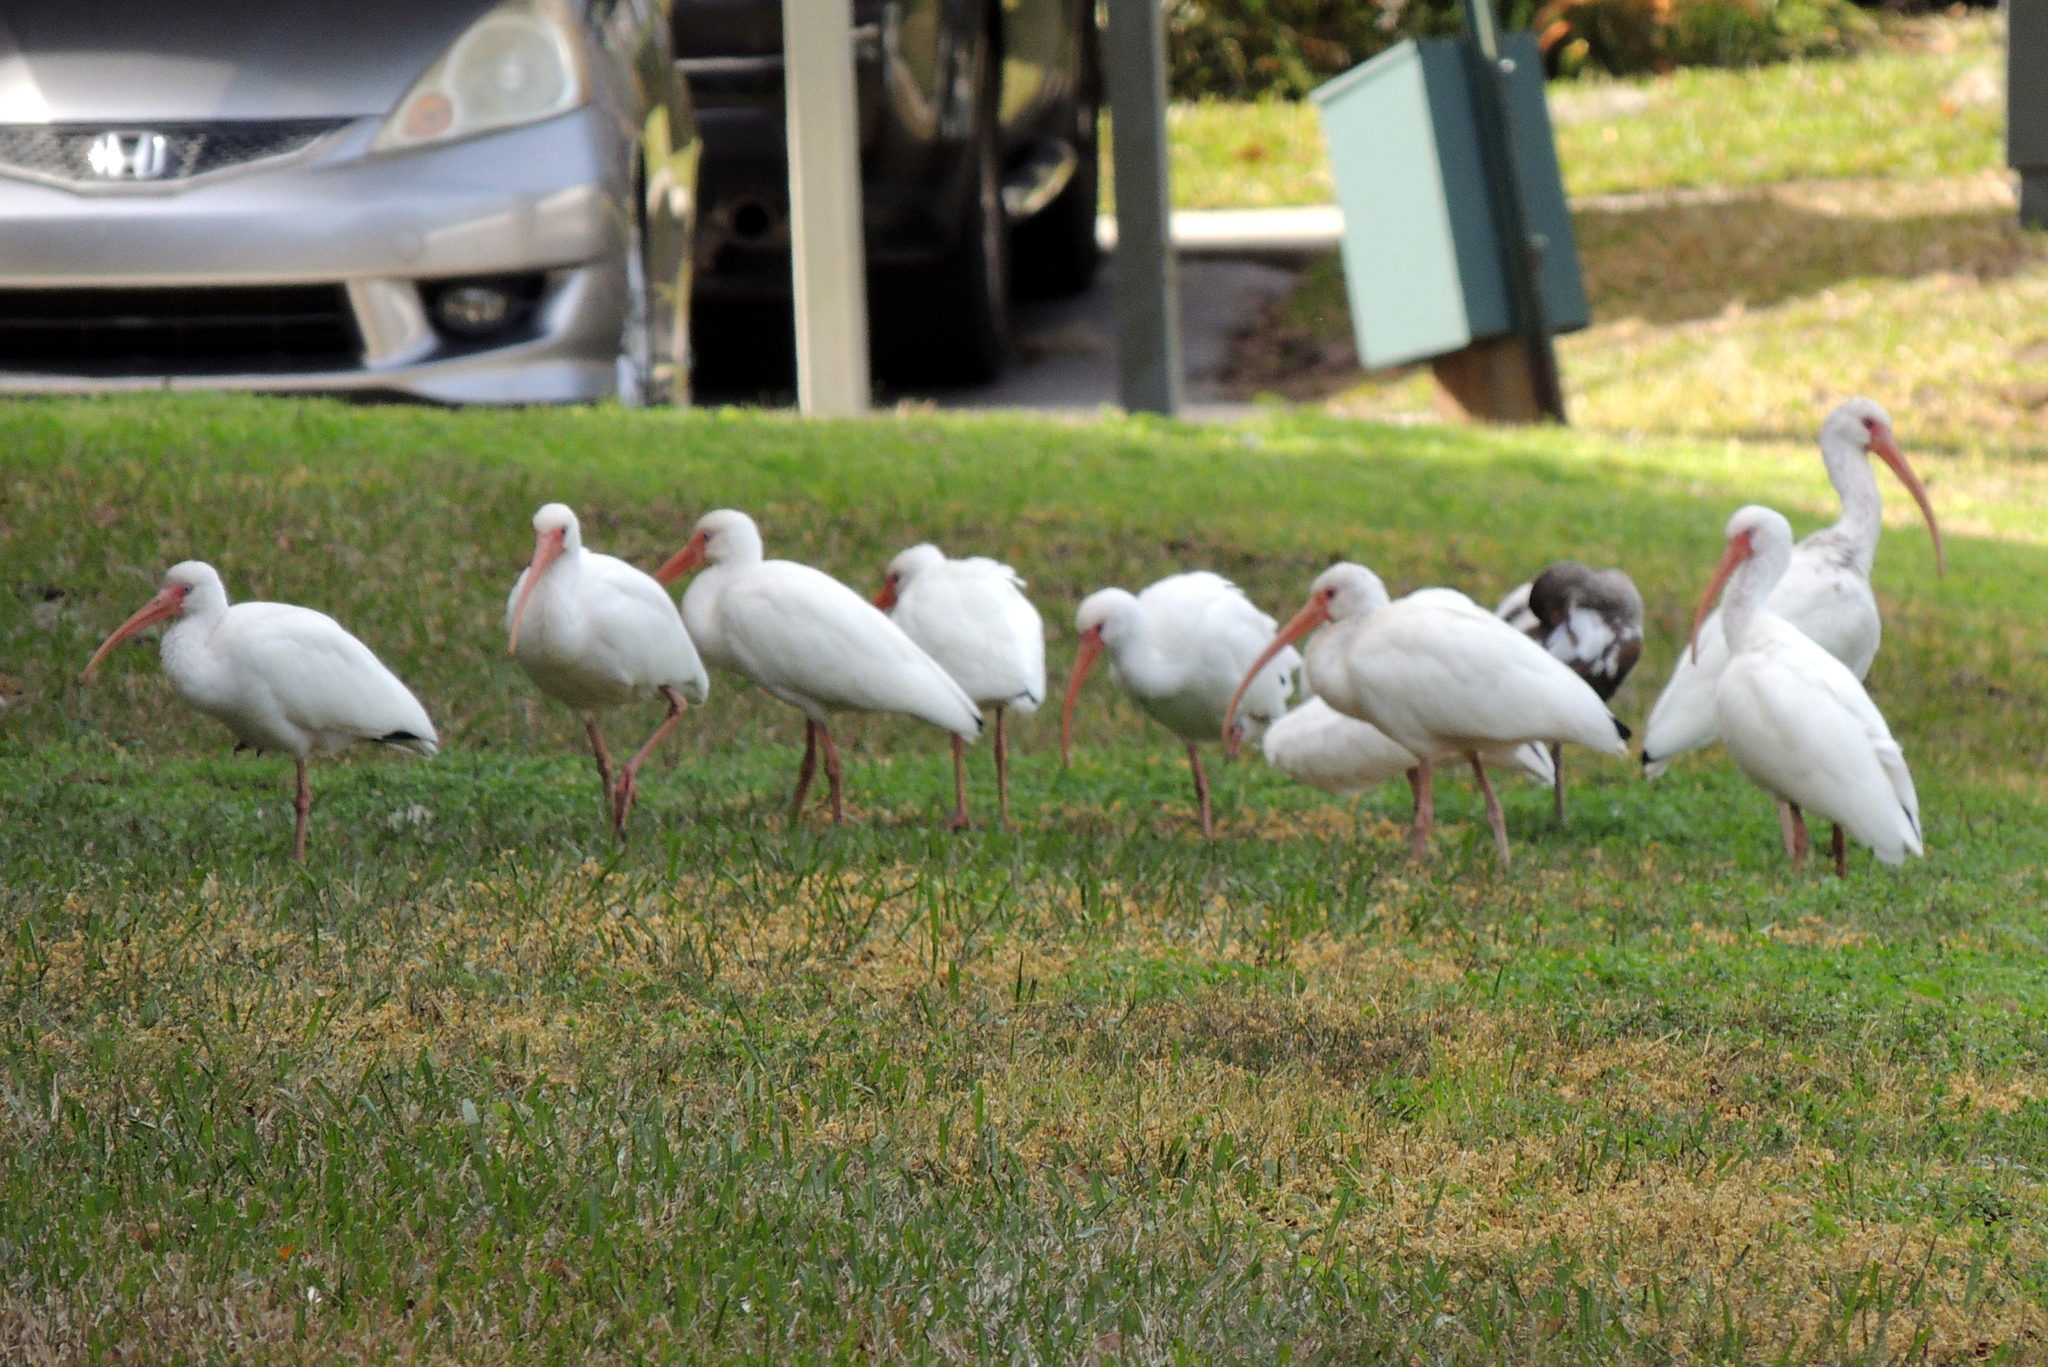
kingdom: Animalia
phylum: Chordata
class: Aves
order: Pelecaniformes
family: Threskiornithidae
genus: Eudocimus
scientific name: Eudocimus albus
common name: White ibis
